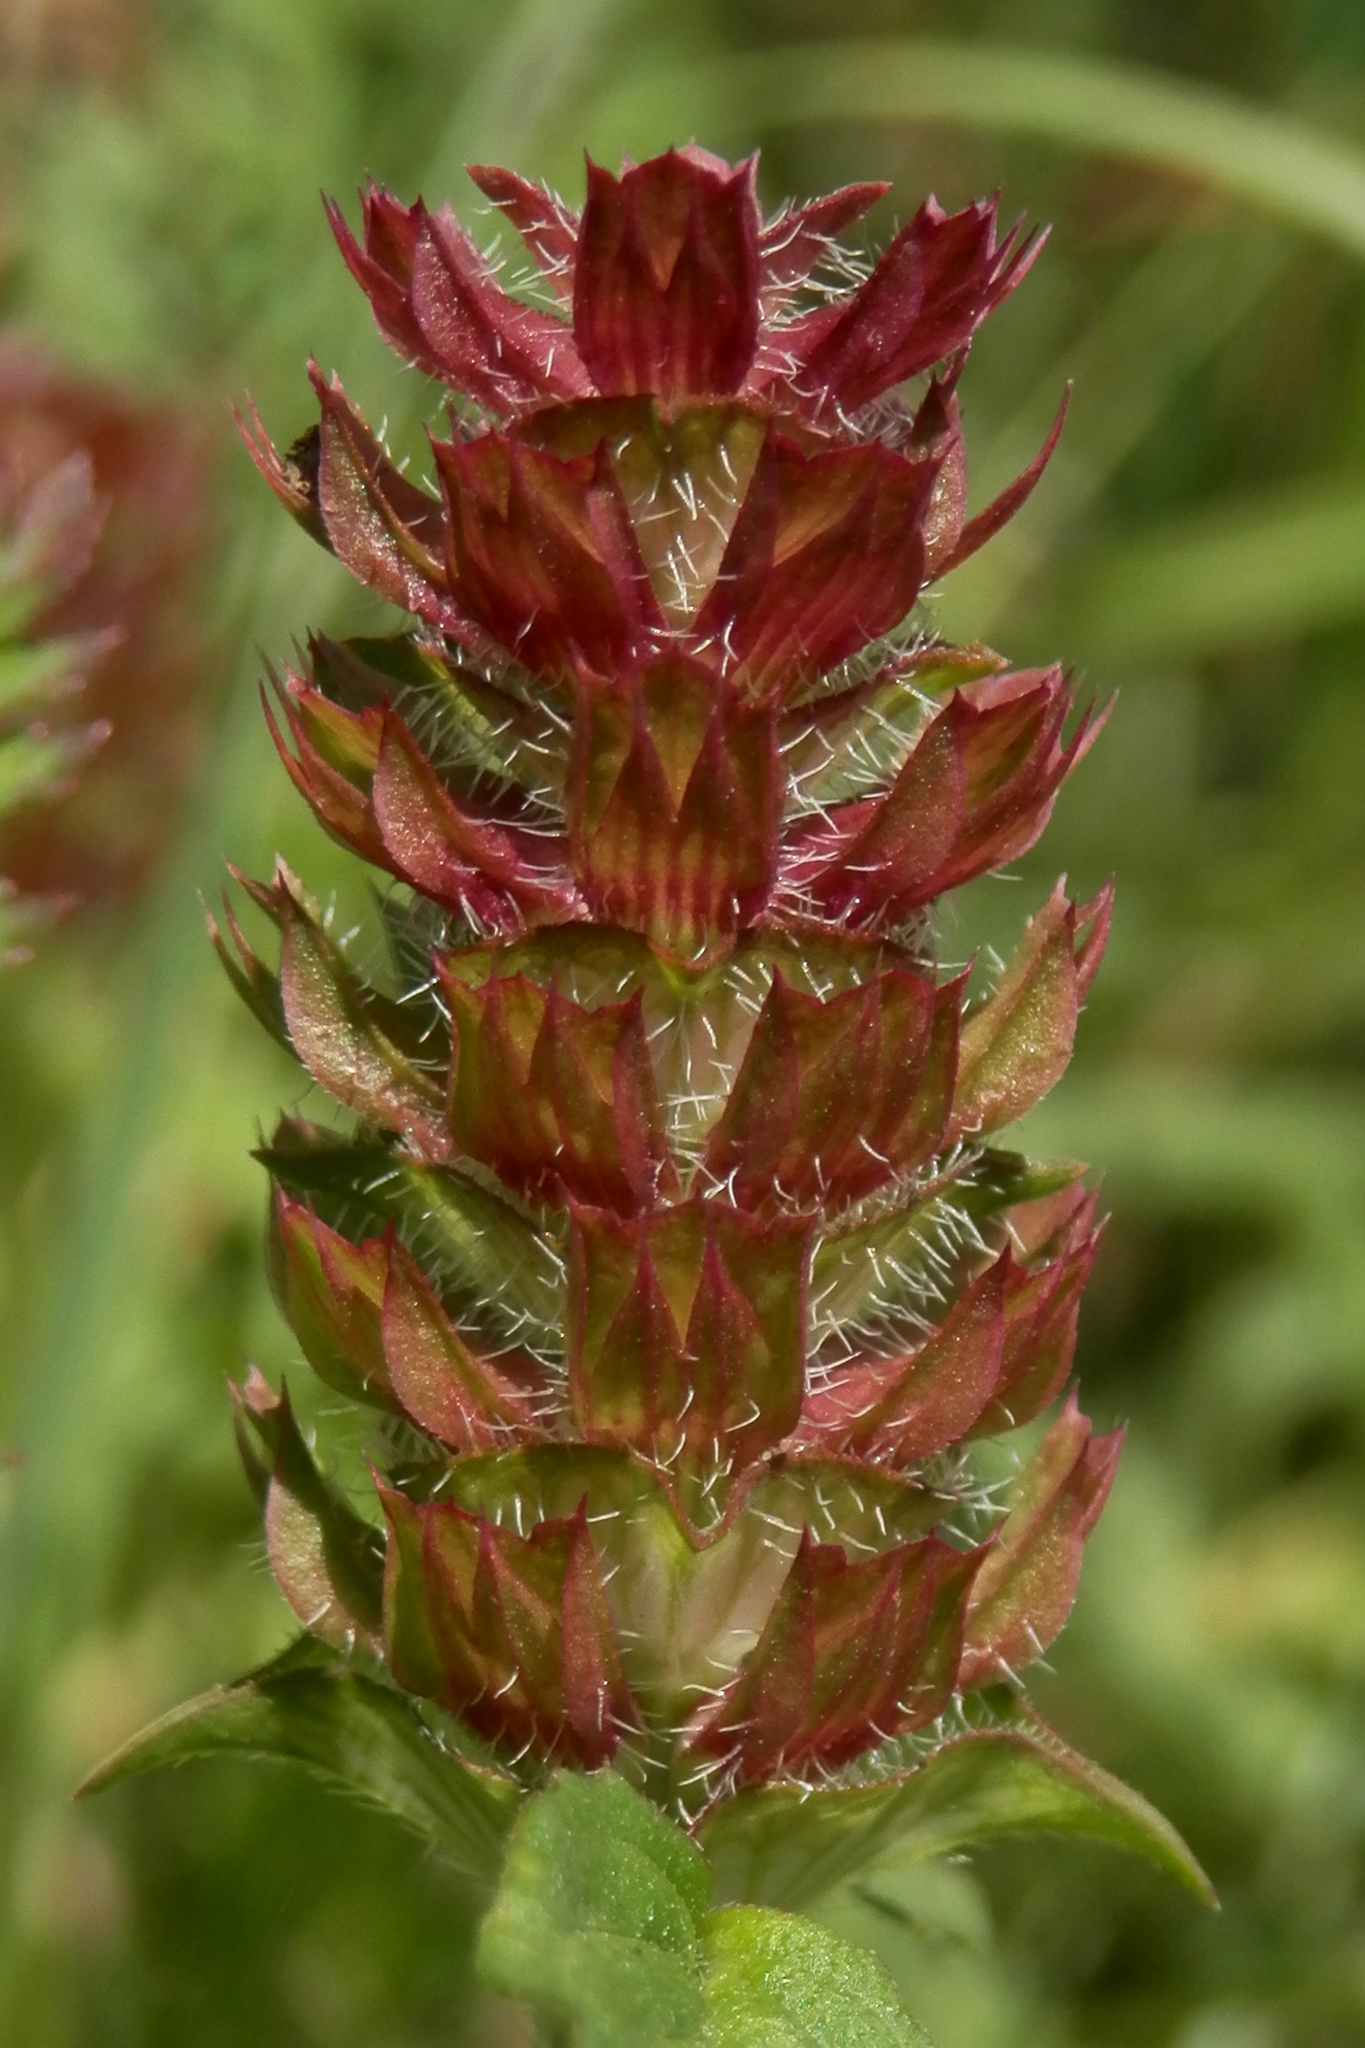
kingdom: Plantae
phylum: Tracheophyta
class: Magnoliopsida
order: Lamiales
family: Lamiaceae
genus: Prunella
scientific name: Prunella vulgaris
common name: Heal-all
